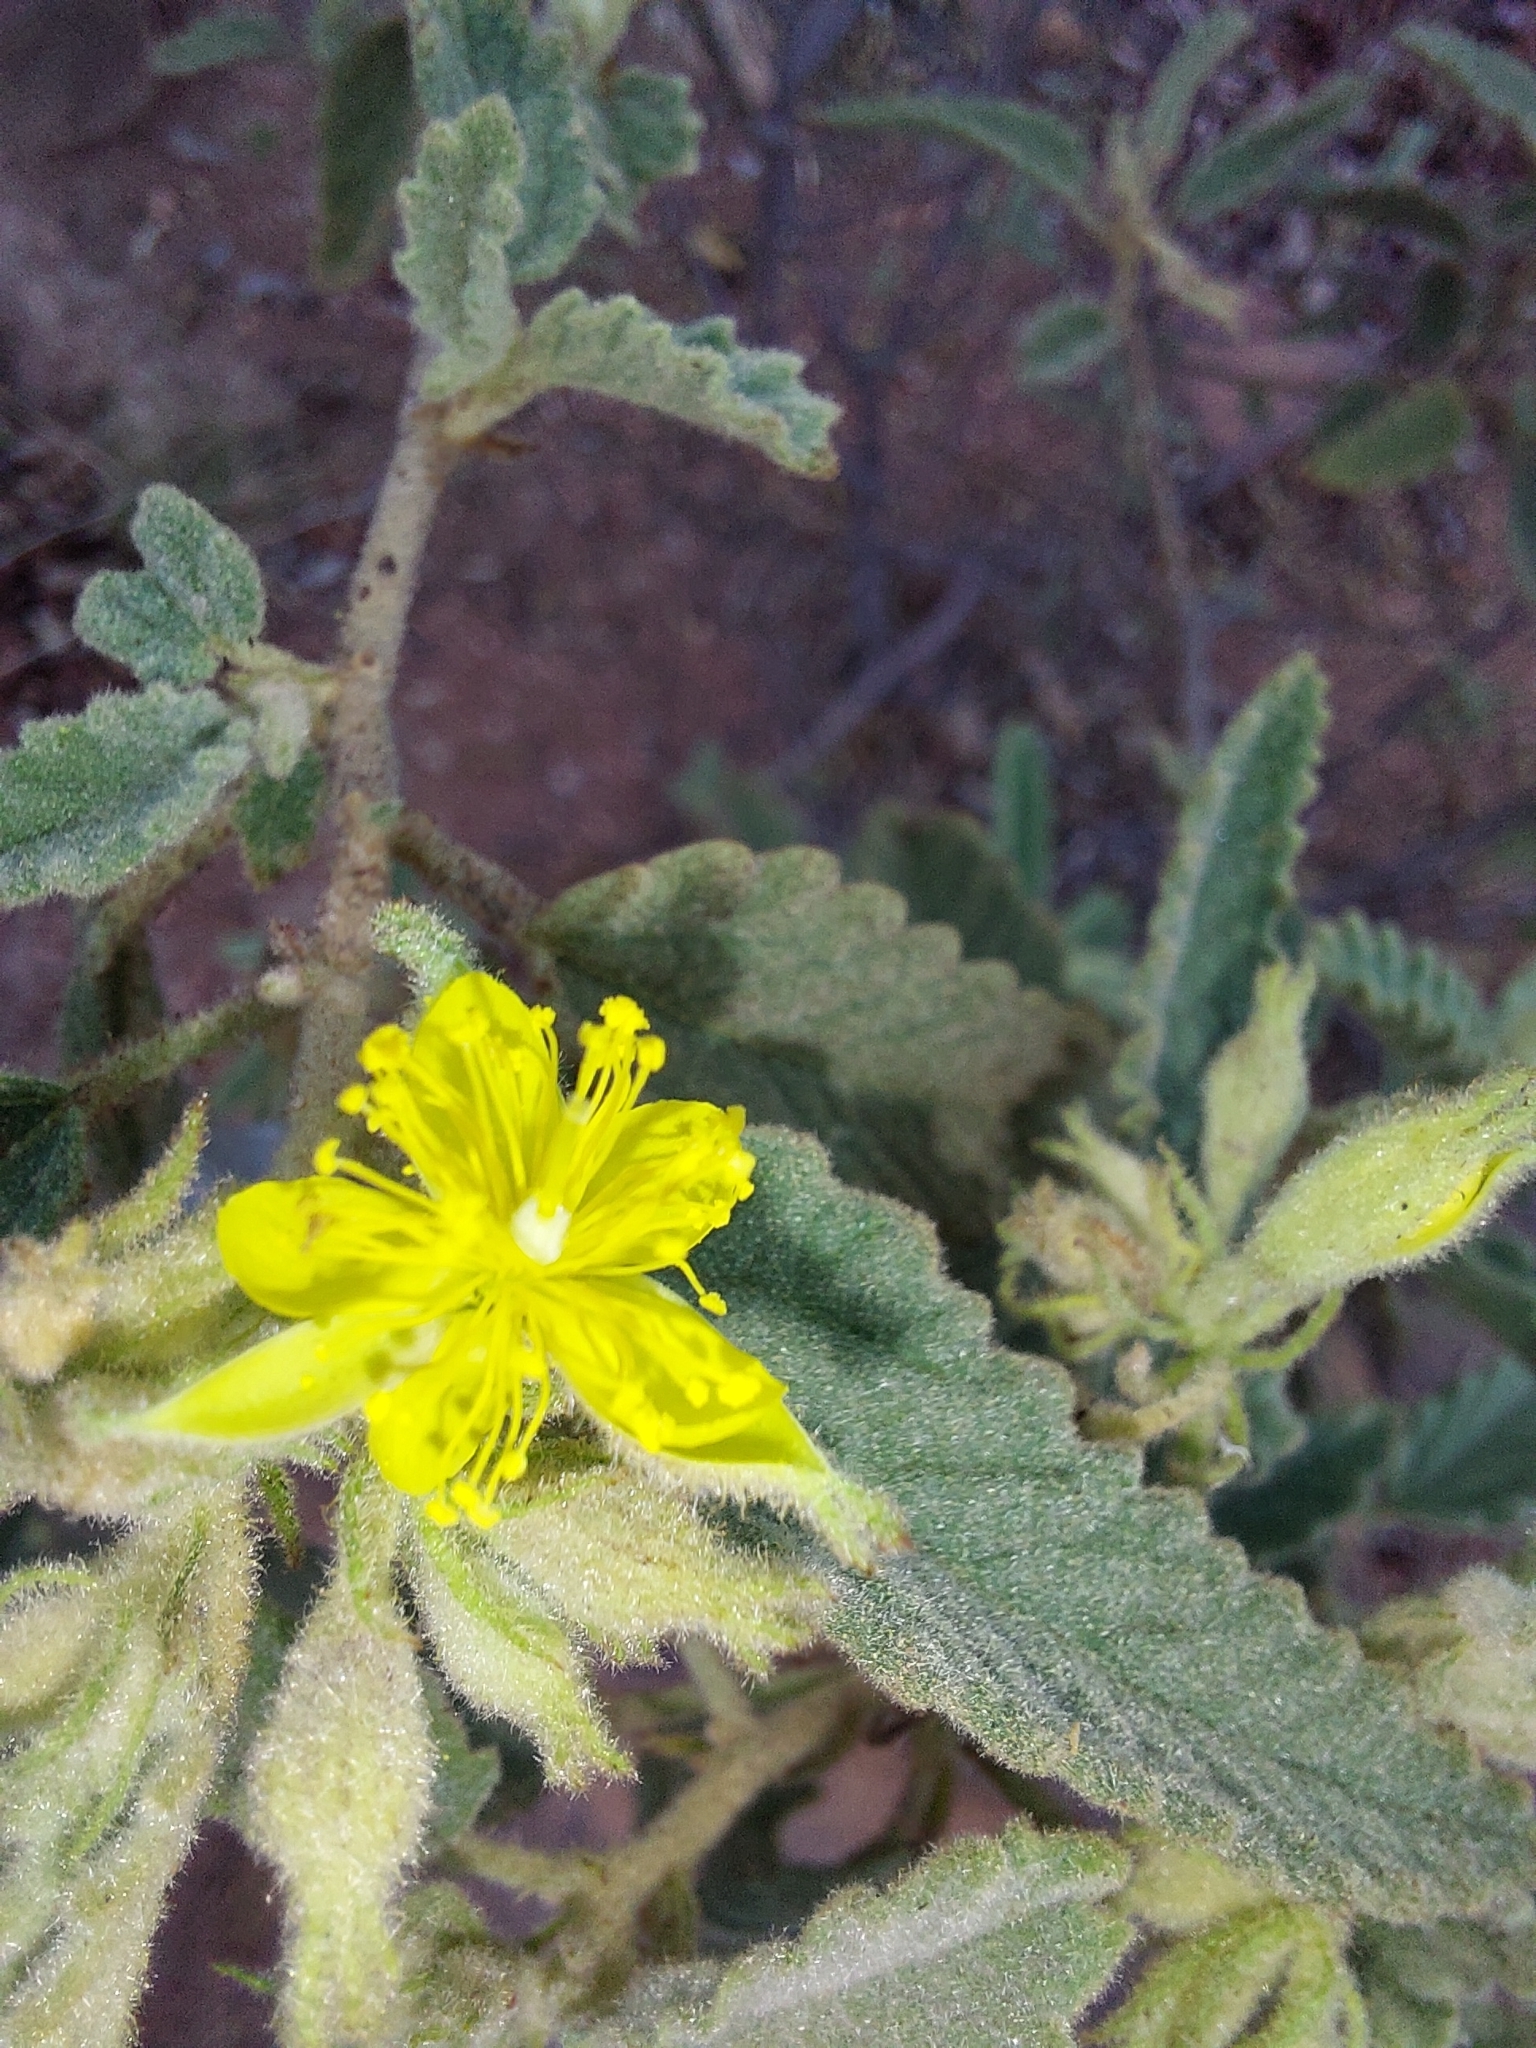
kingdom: Plantae
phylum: Tracheophyta
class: Magnoliopsida
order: Malvales
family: Malvaceae
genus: Corchorus
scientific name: Corchorus kirkii
